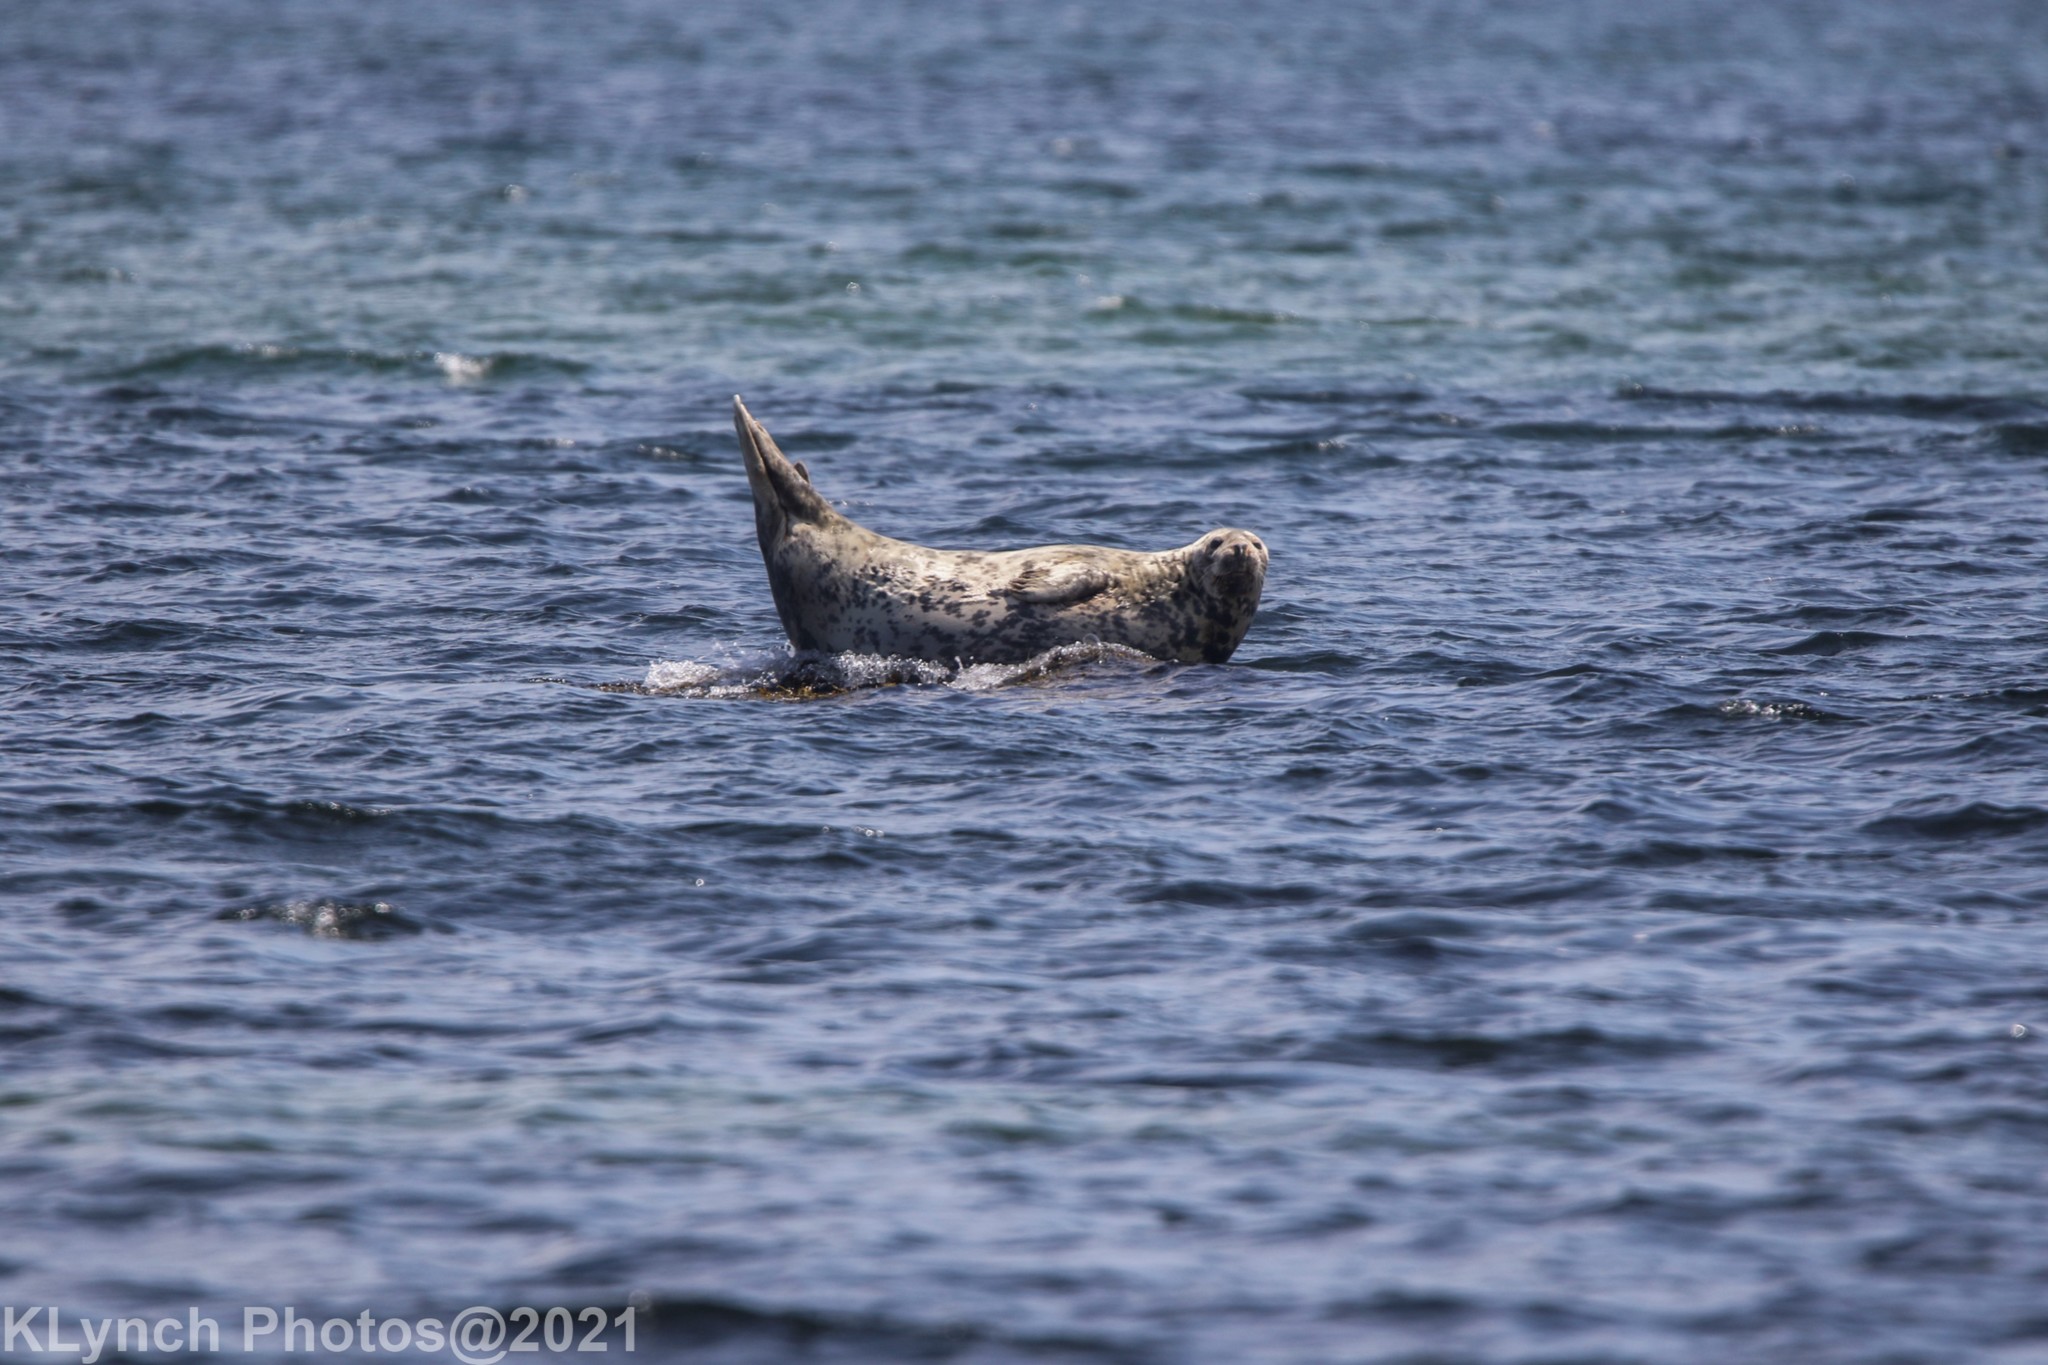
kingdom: Animalia
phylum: Chordata
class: Mammalia
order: Carnivora
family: Phocidae
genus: Halichoerus
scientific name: Halichoerus grypus
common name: Grey seal
